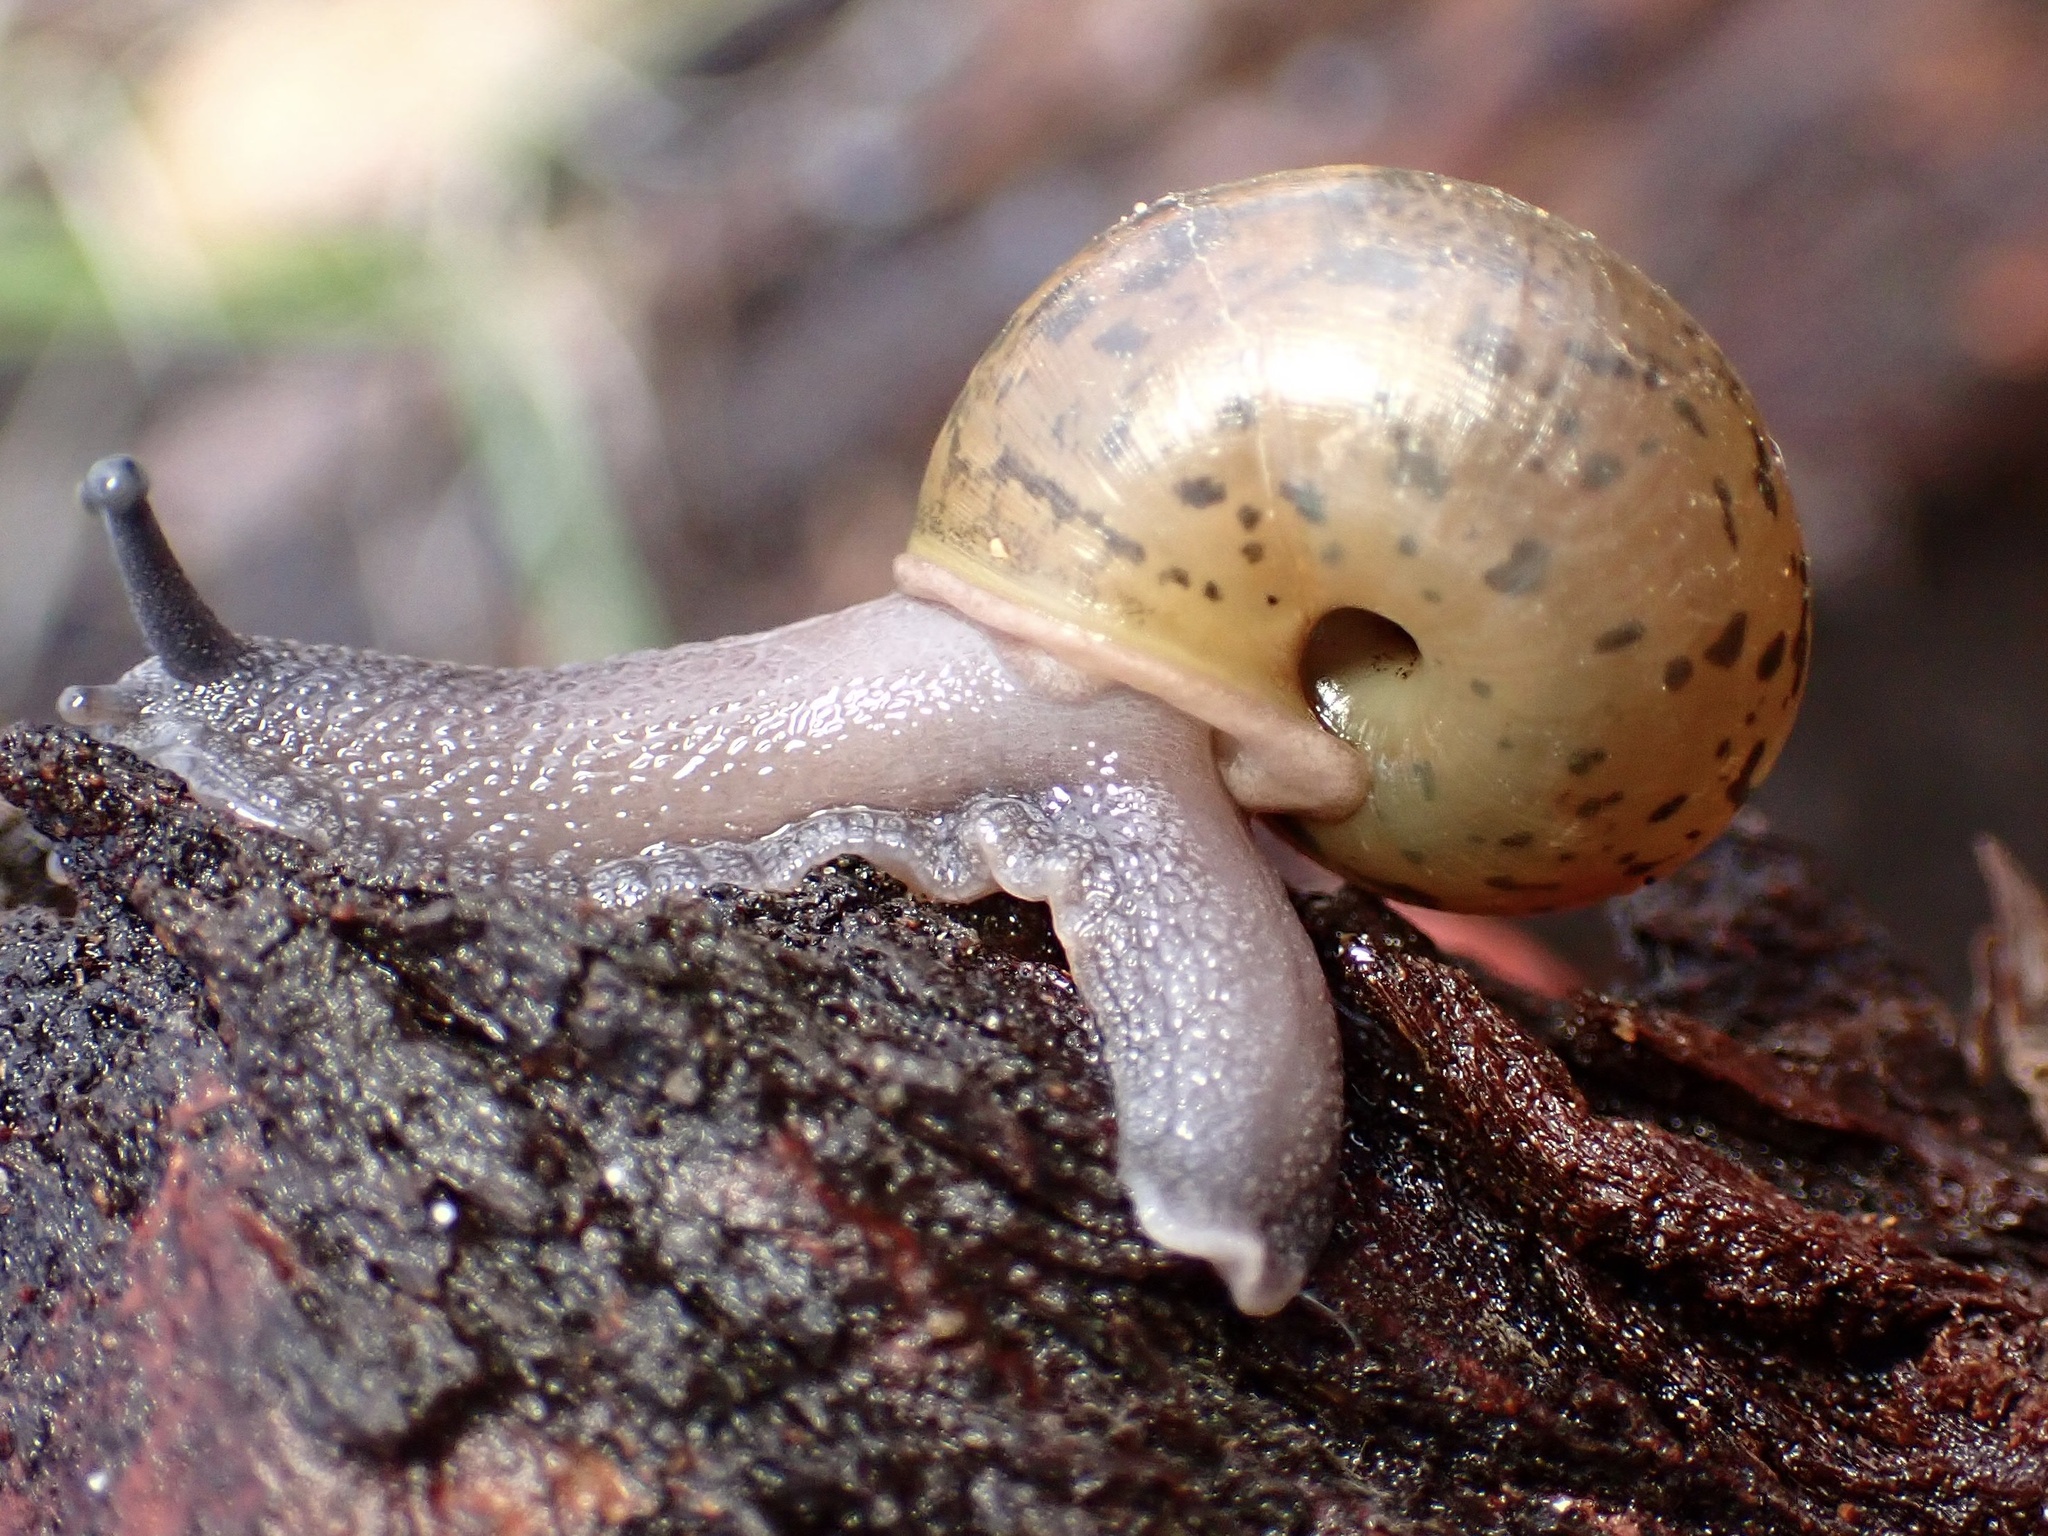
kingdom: Animalia
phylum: Mollusca
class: Gastropoda
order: Stylommatophora
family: Xanthonychidae
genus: Helminthoglypta
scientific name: Helminthoglypta salviae
